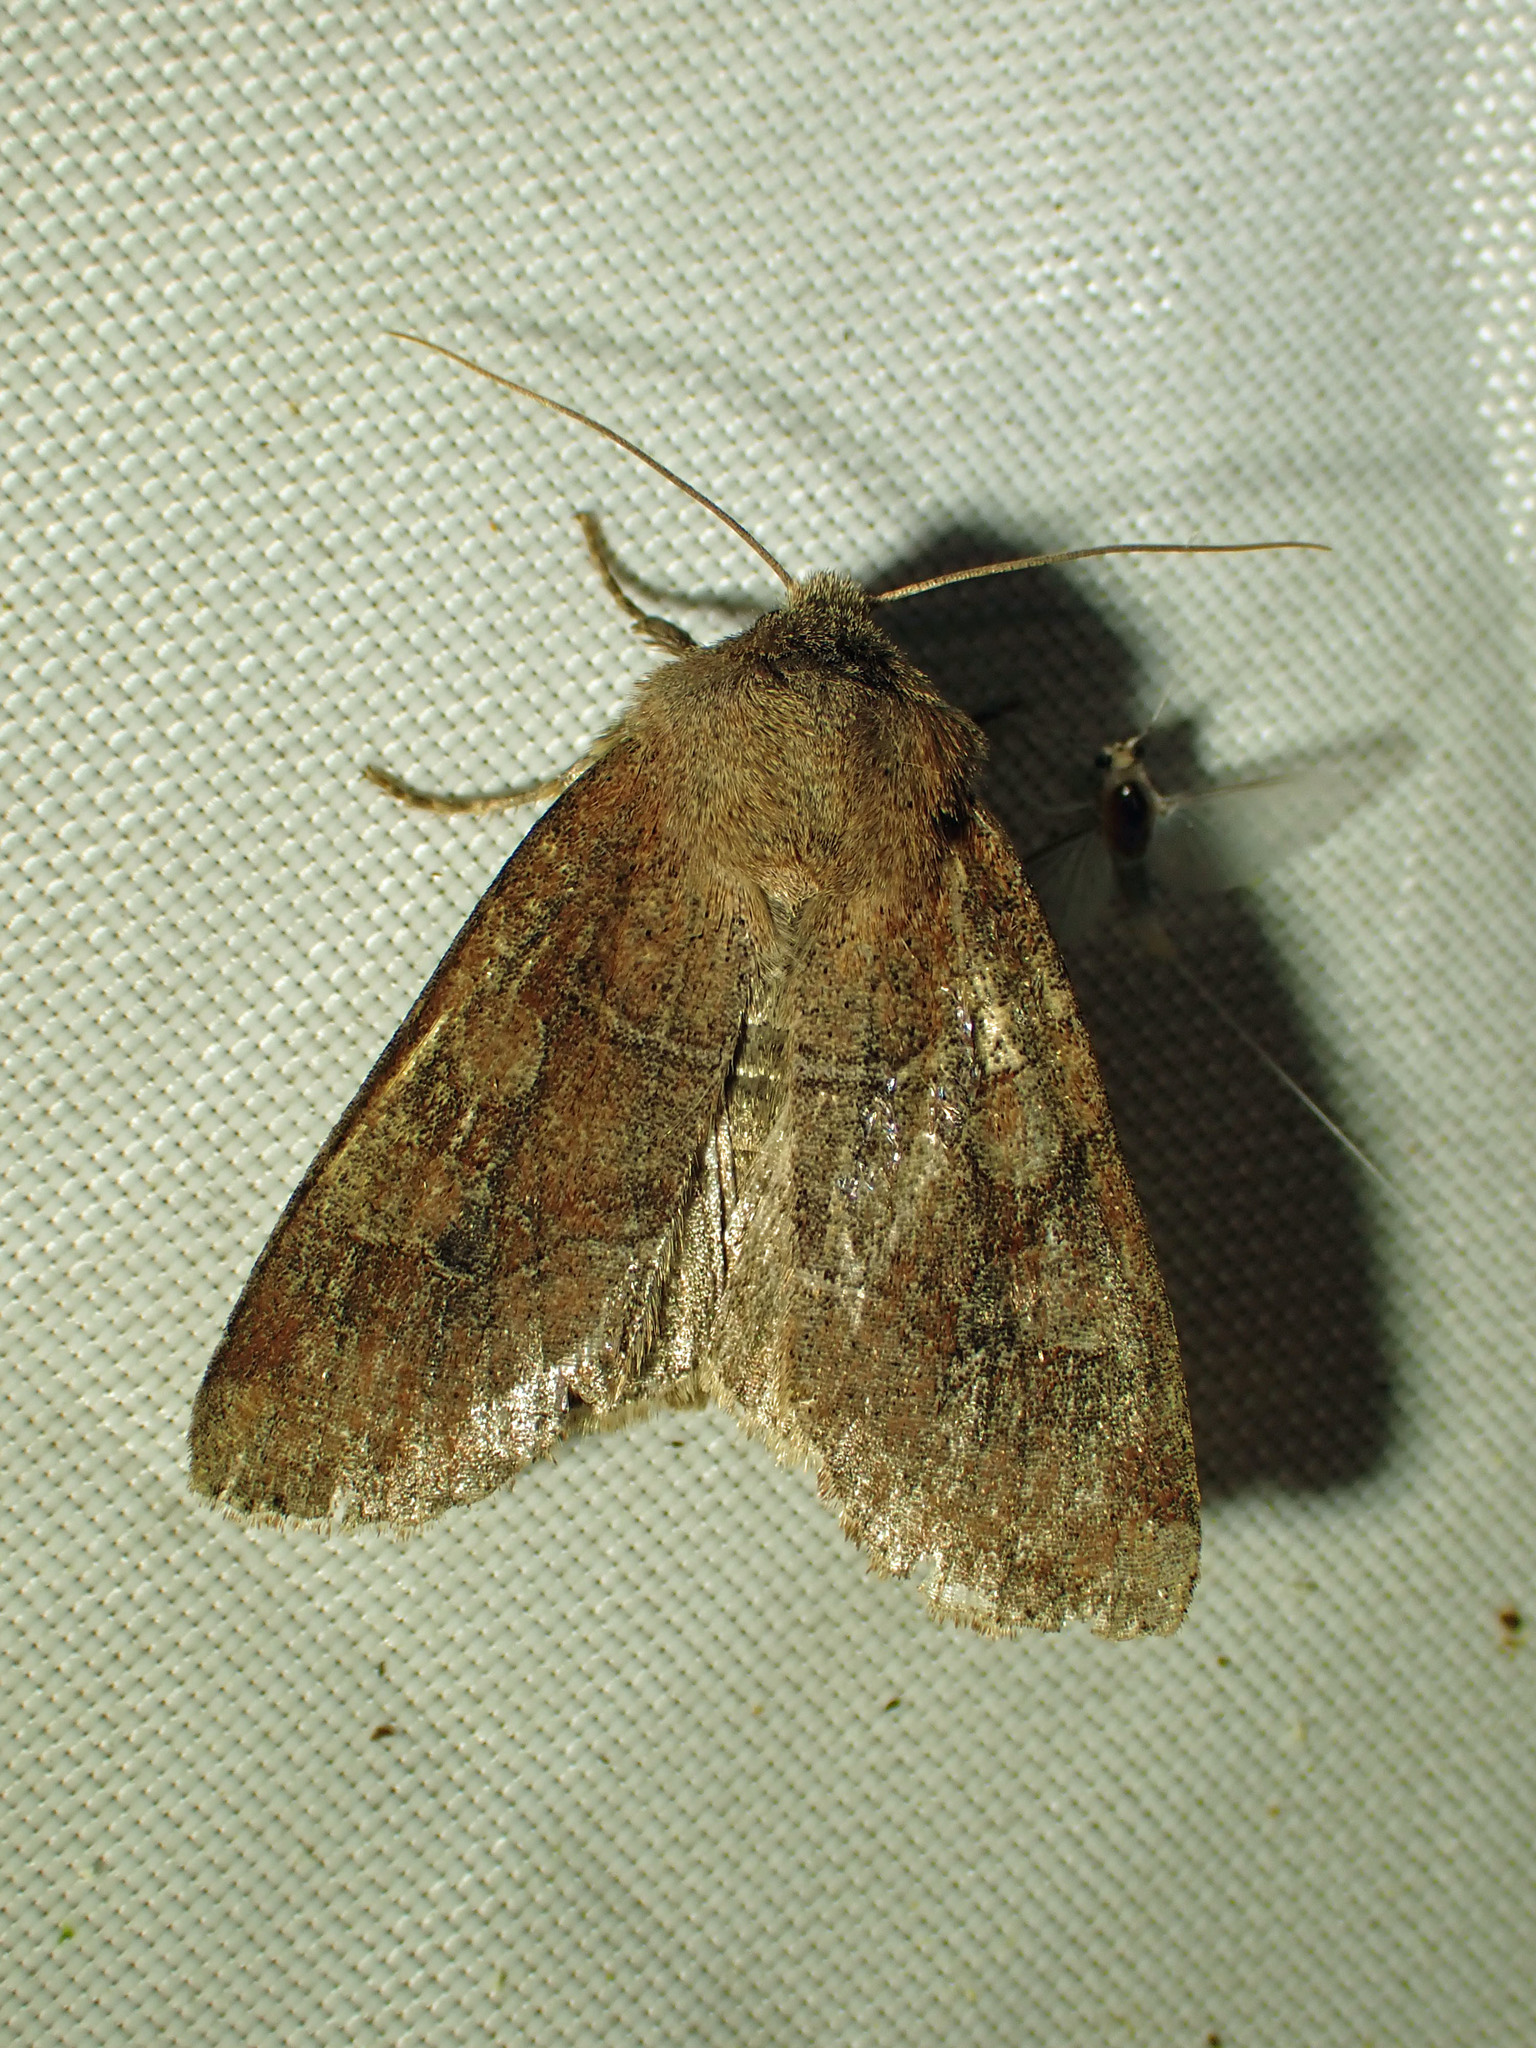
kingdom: Animalia
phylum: Arthropoda
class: Insecta
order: Lepidoptera
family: Noctuidae
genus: Crocigrapha
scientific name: Crocigrapha normani
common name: Norman's quaker
